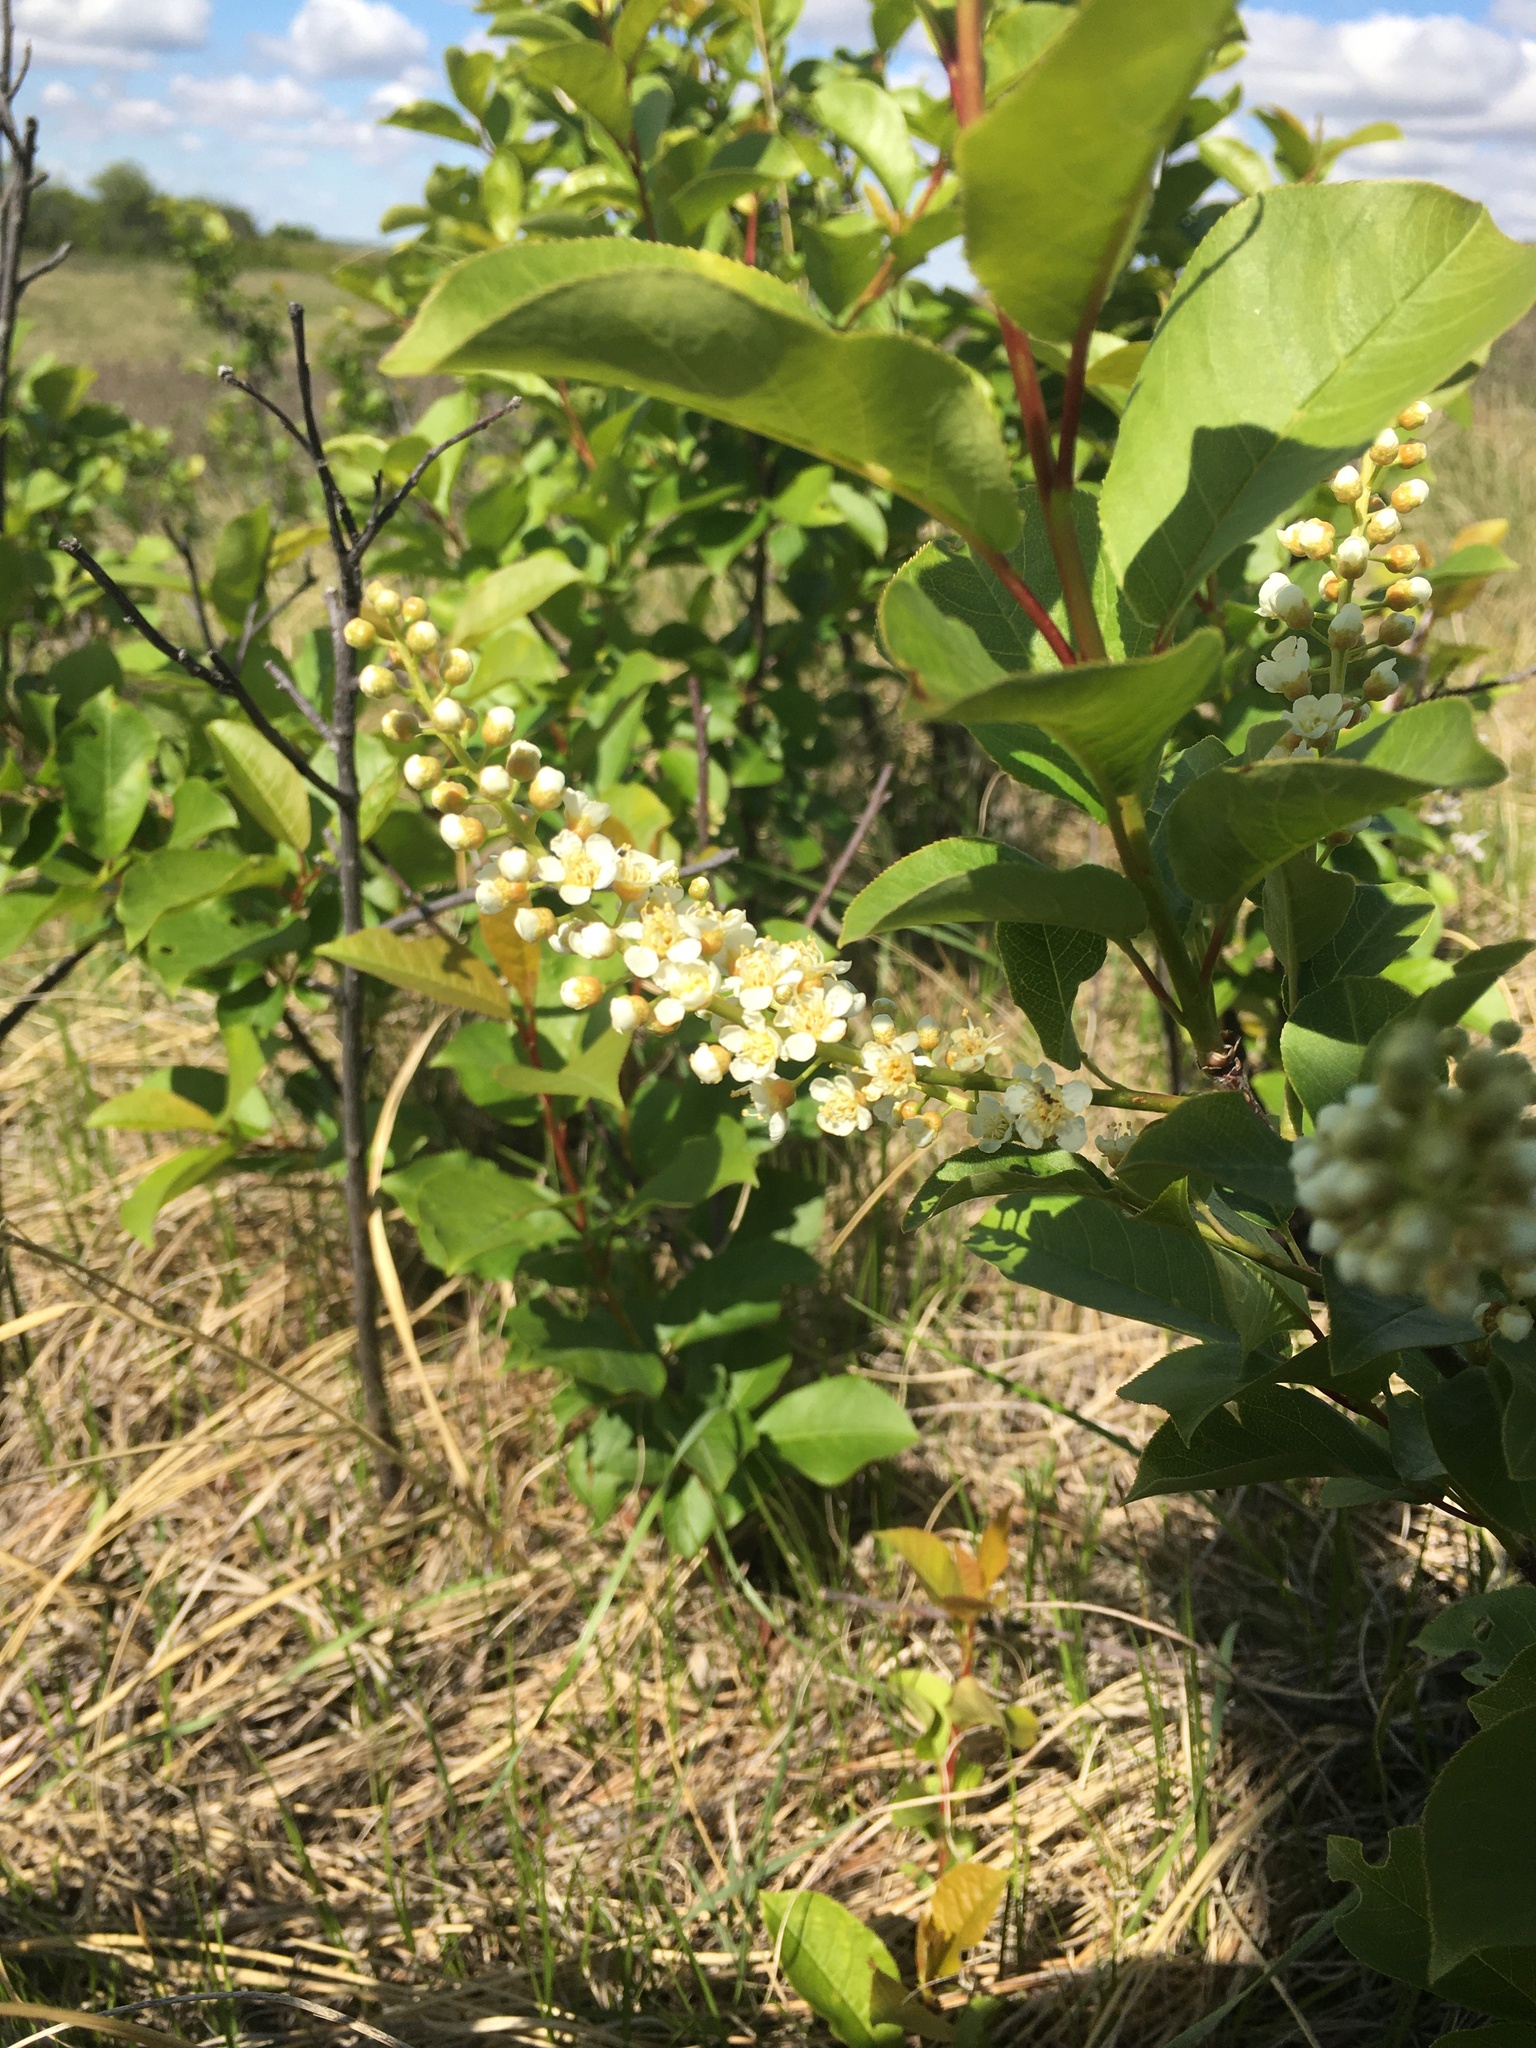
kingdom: Plantae
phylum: Tracheophyta
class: Magnoliopsida
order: Rosales
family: Rosaceae
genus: Prunus
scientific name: Prunus virginiana
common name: Chokecherry
